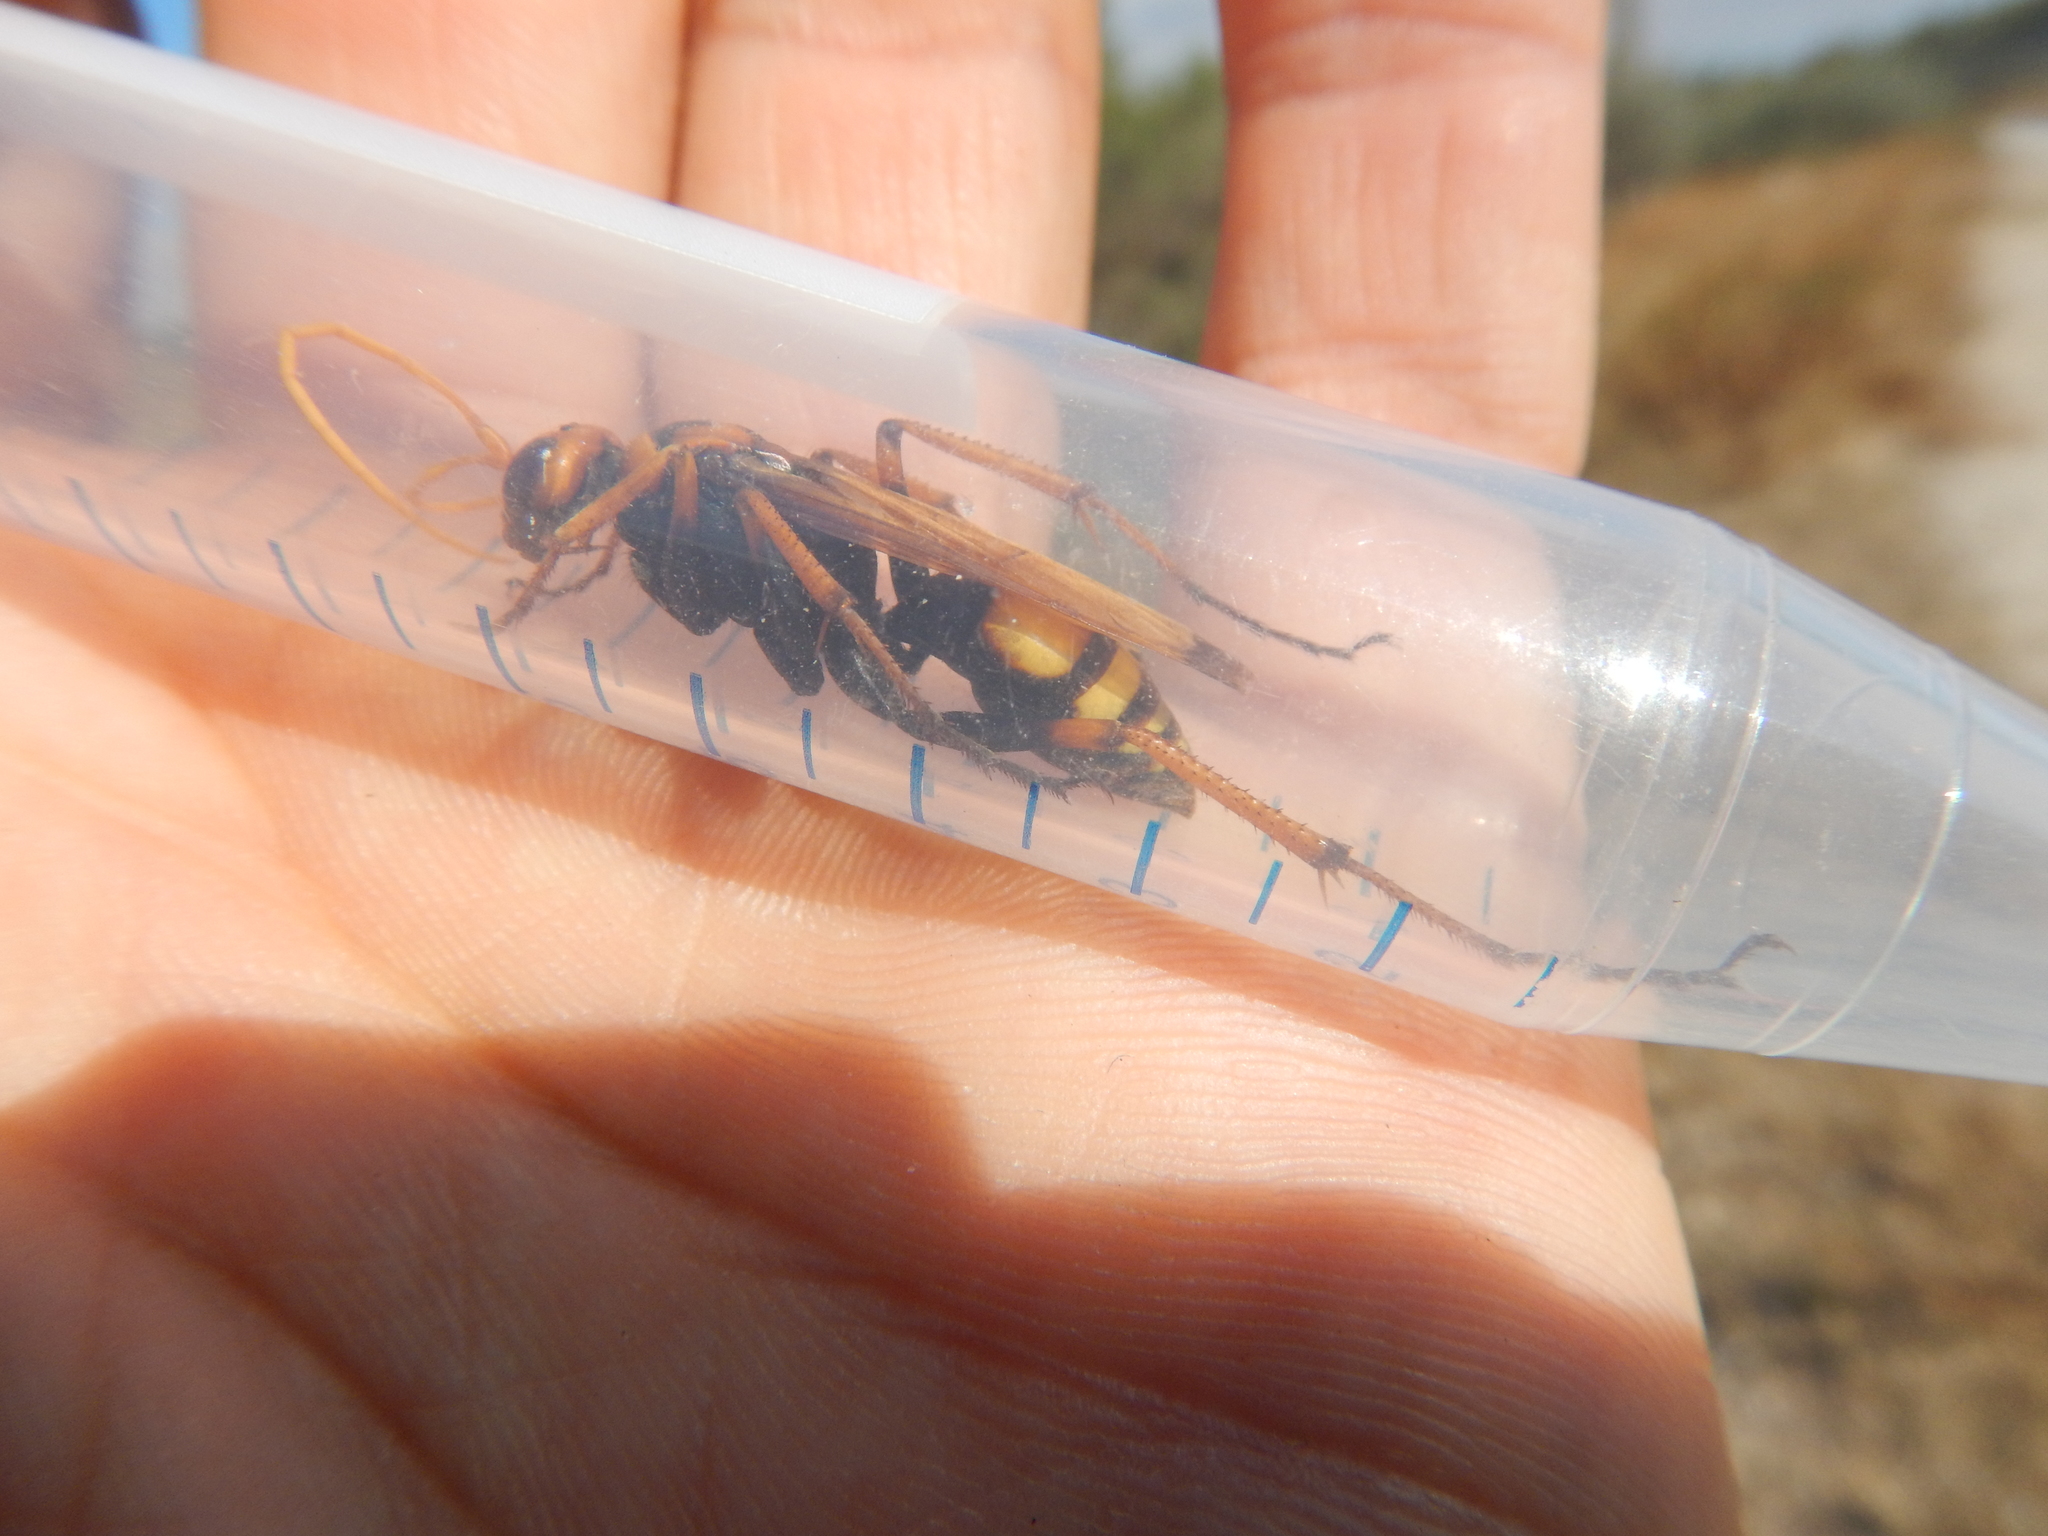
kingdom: Animalia
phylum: Arthropoda
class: Insecta
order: Hymenoptera
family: Pompilidae
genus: Cryptocheilus
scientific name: Cryptocheilus alternatus
